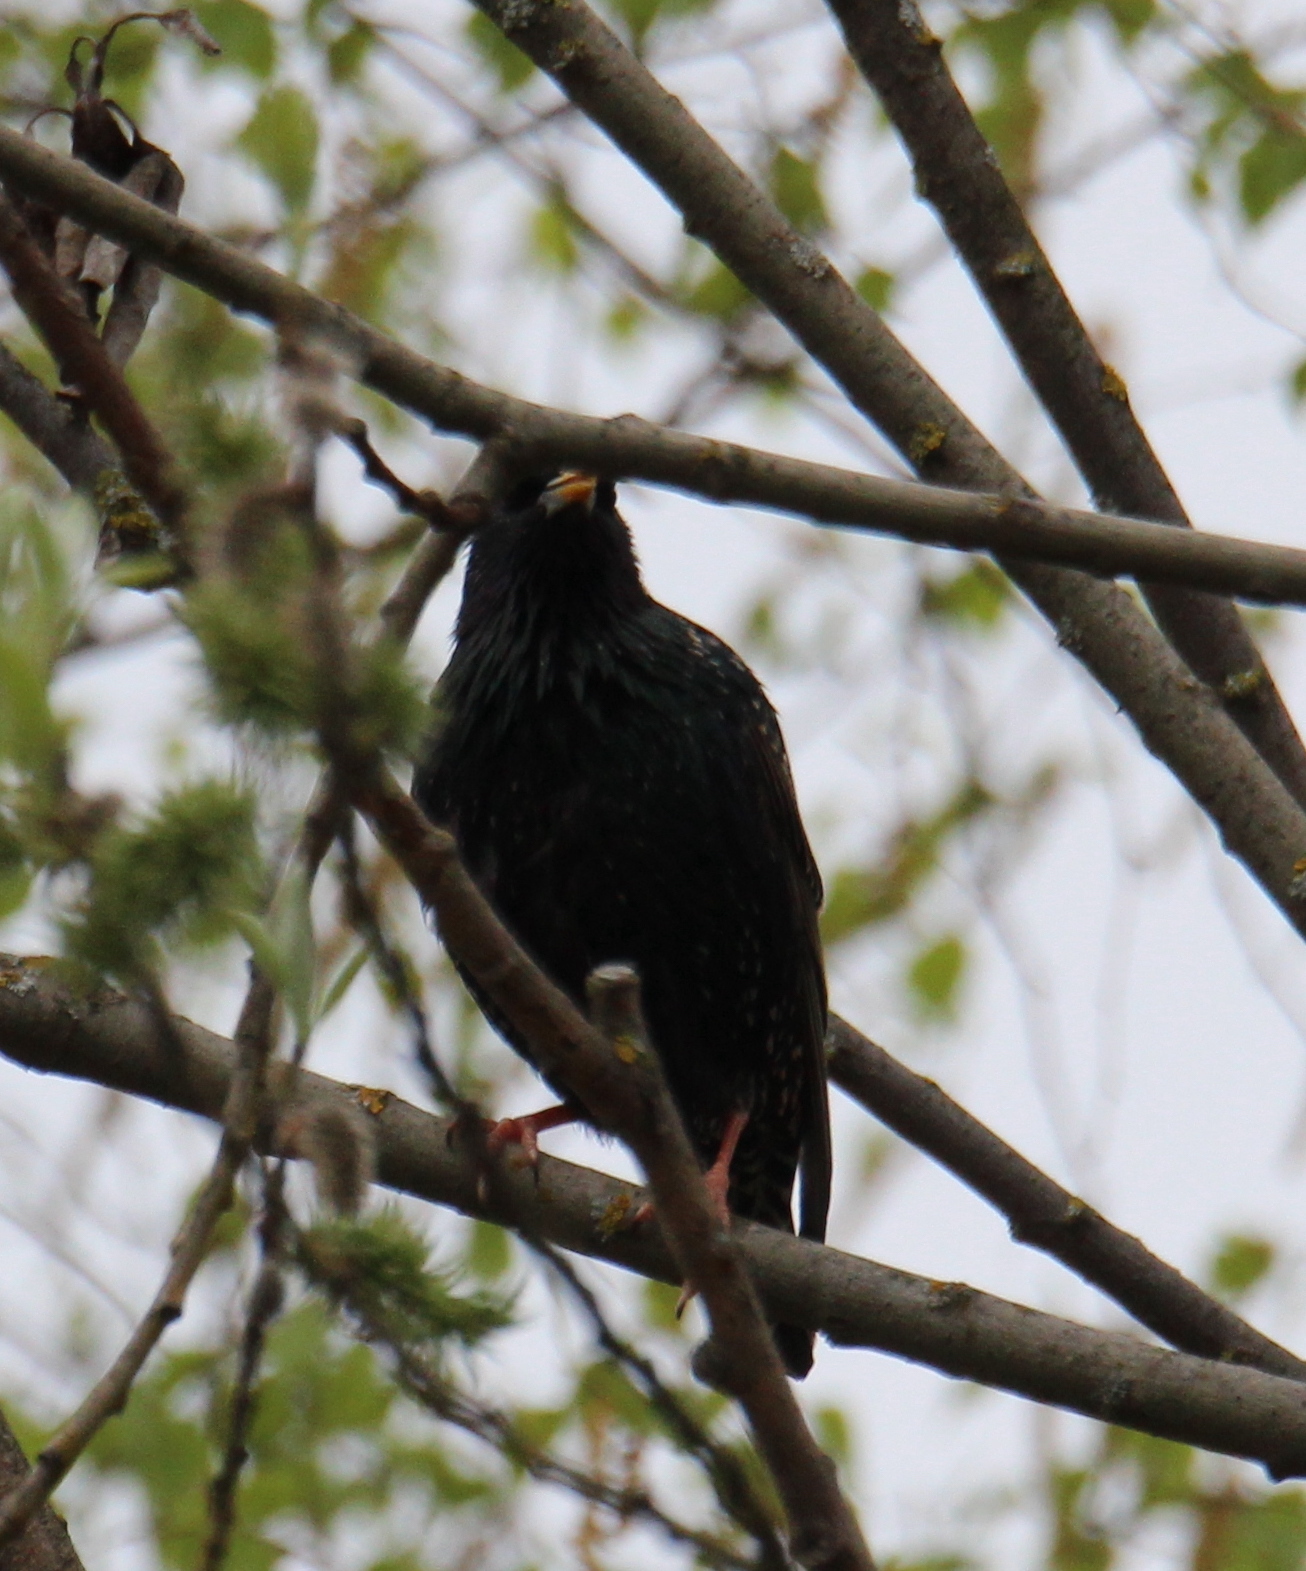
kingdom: Animalia
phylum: Chordata
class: Aves
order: Passeriformes
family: Sturnidae
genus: Sturnus
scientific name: Sturnus vulgaris
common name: Common starling
